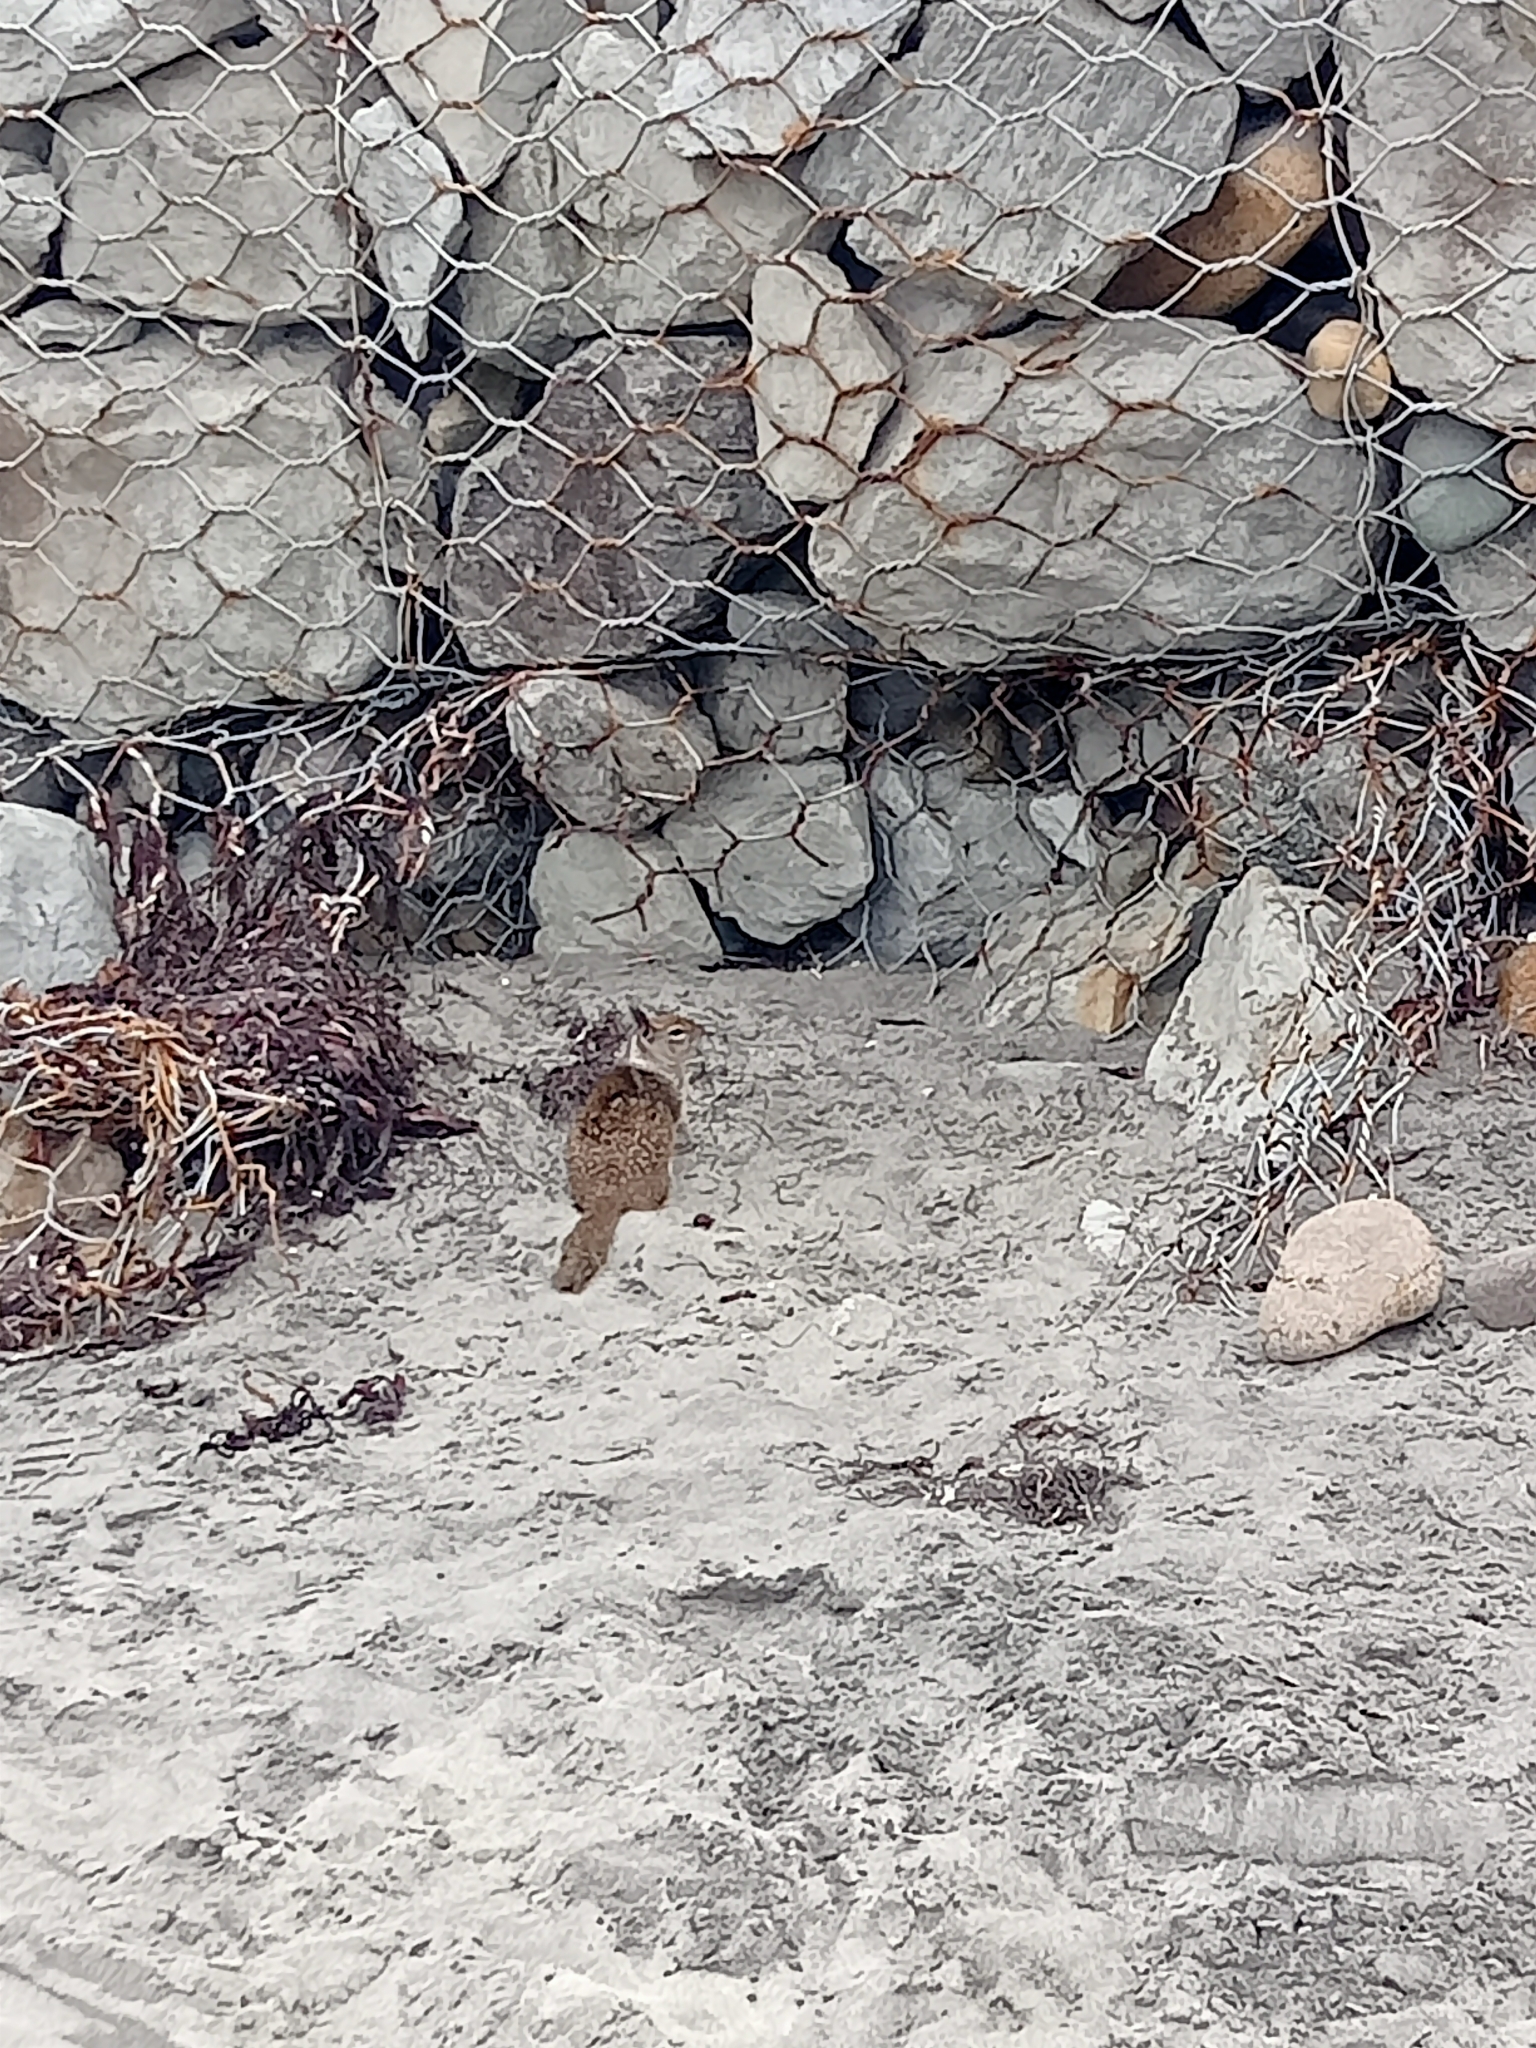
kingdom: Animalia
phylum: Chordata
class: Mammalia
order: Rodentia
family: Sciuridae
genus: Otospermophilus
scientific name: Otospermophilus beecheyi
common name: California ground squirrel
